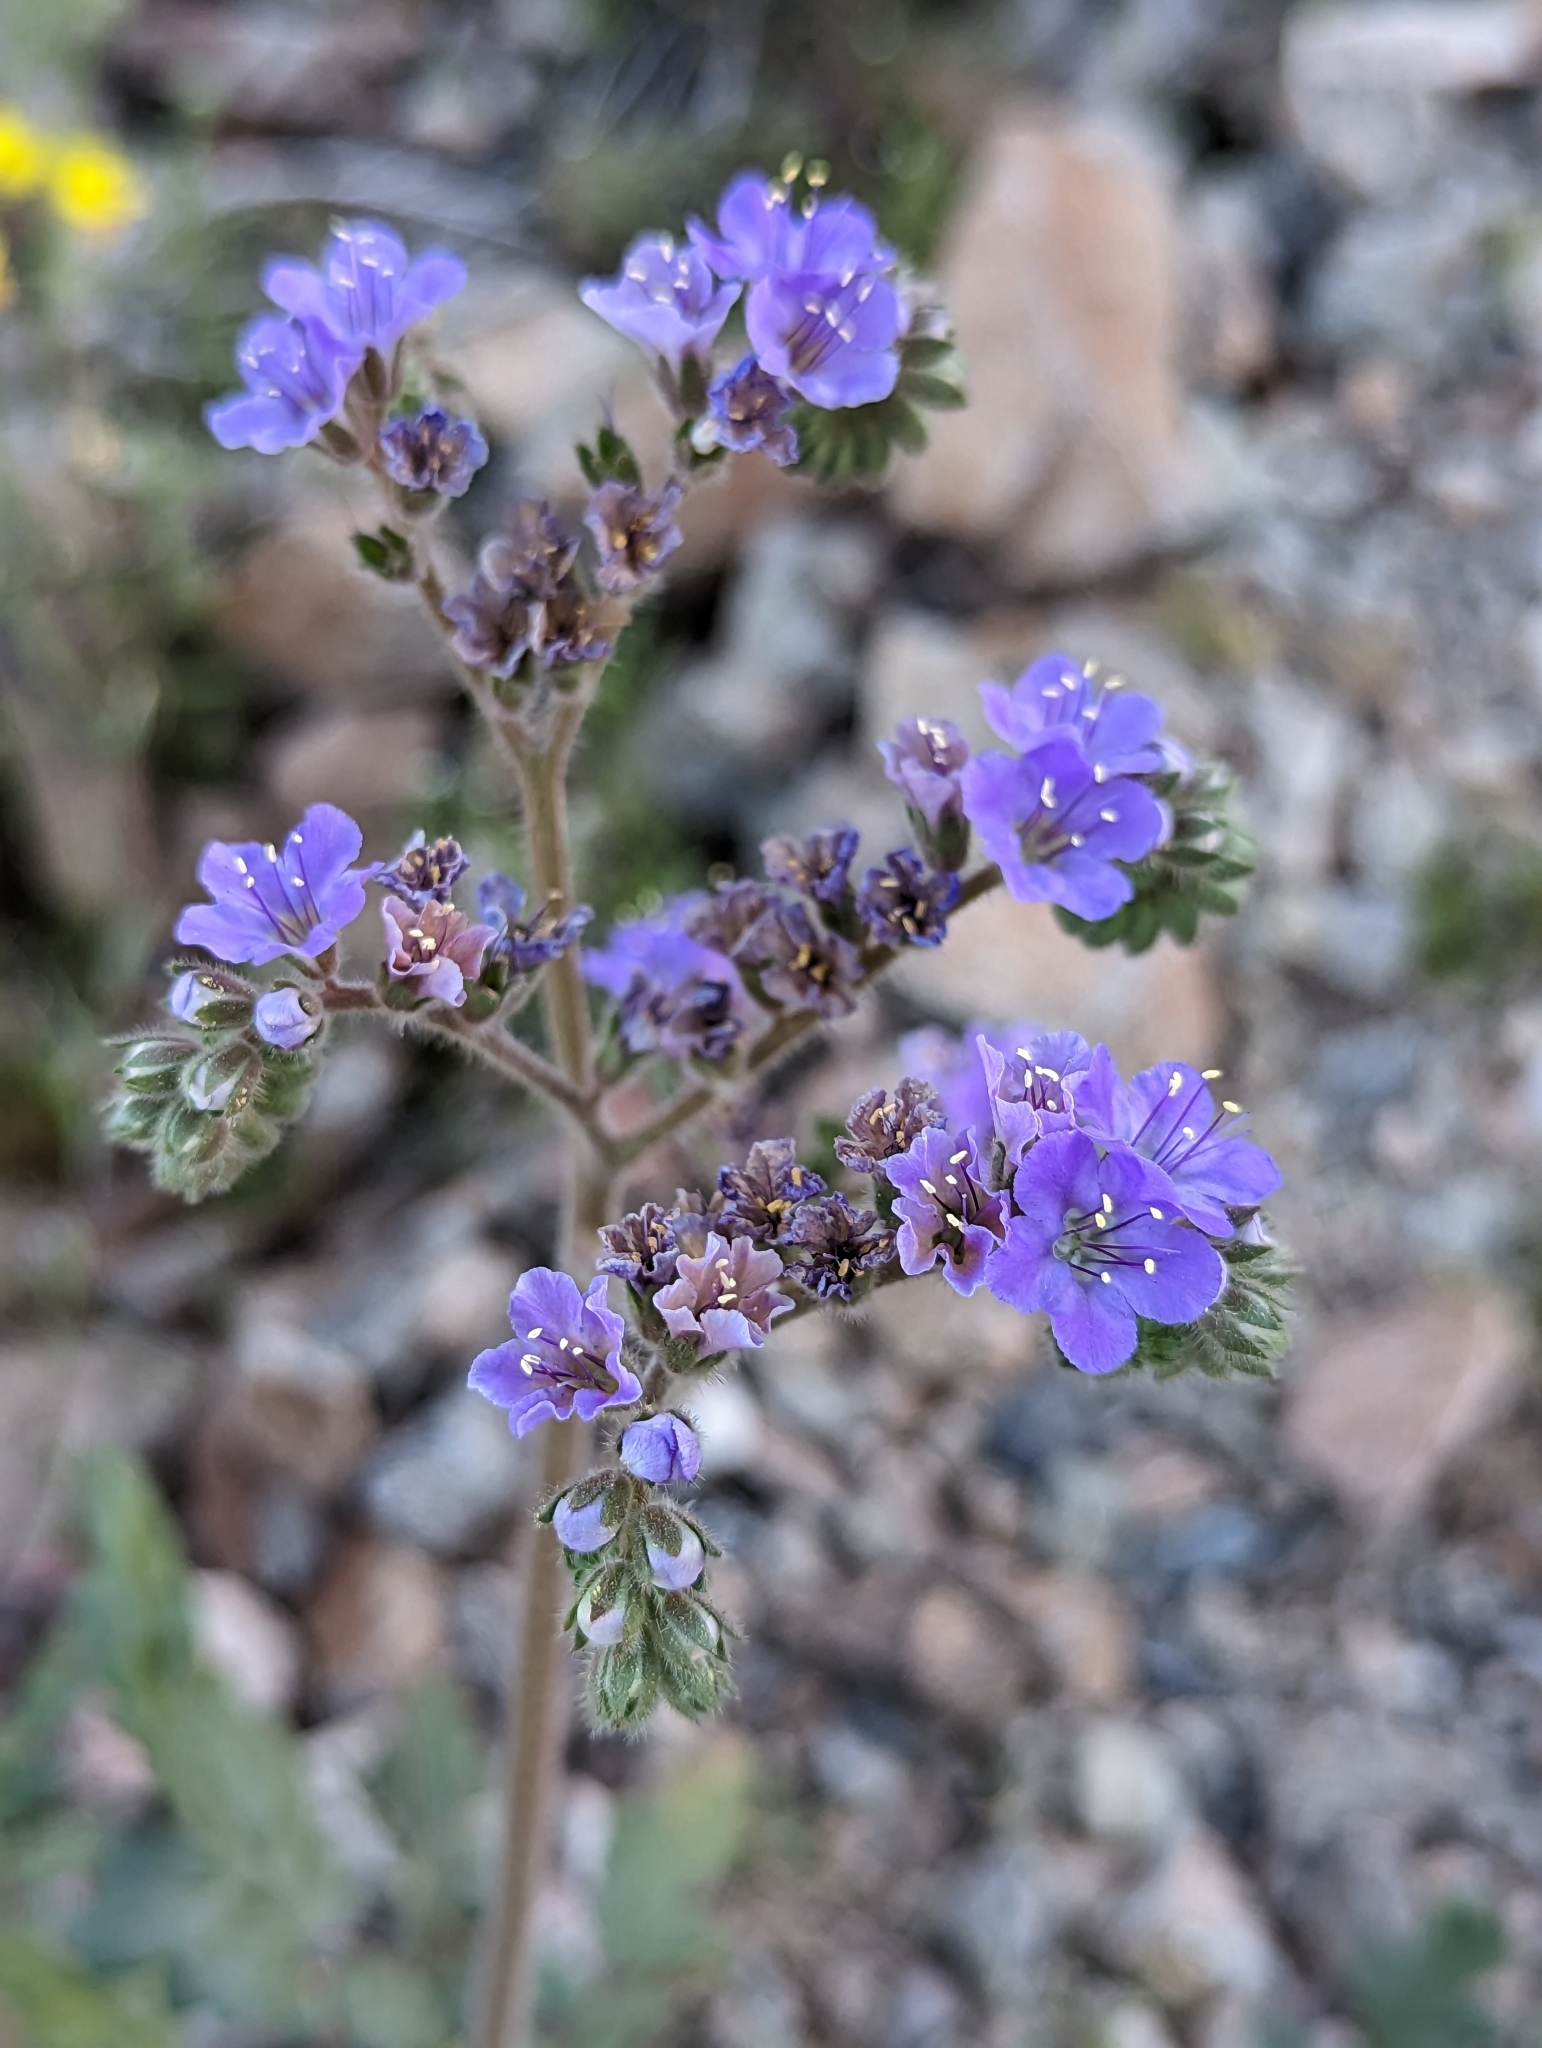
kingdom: Plantae
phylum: Tracheophyta
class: Magnoliopsida
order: Boraginales
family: Hydrophyllaceae
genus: Phacelia
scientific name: Phacelia crenulata
